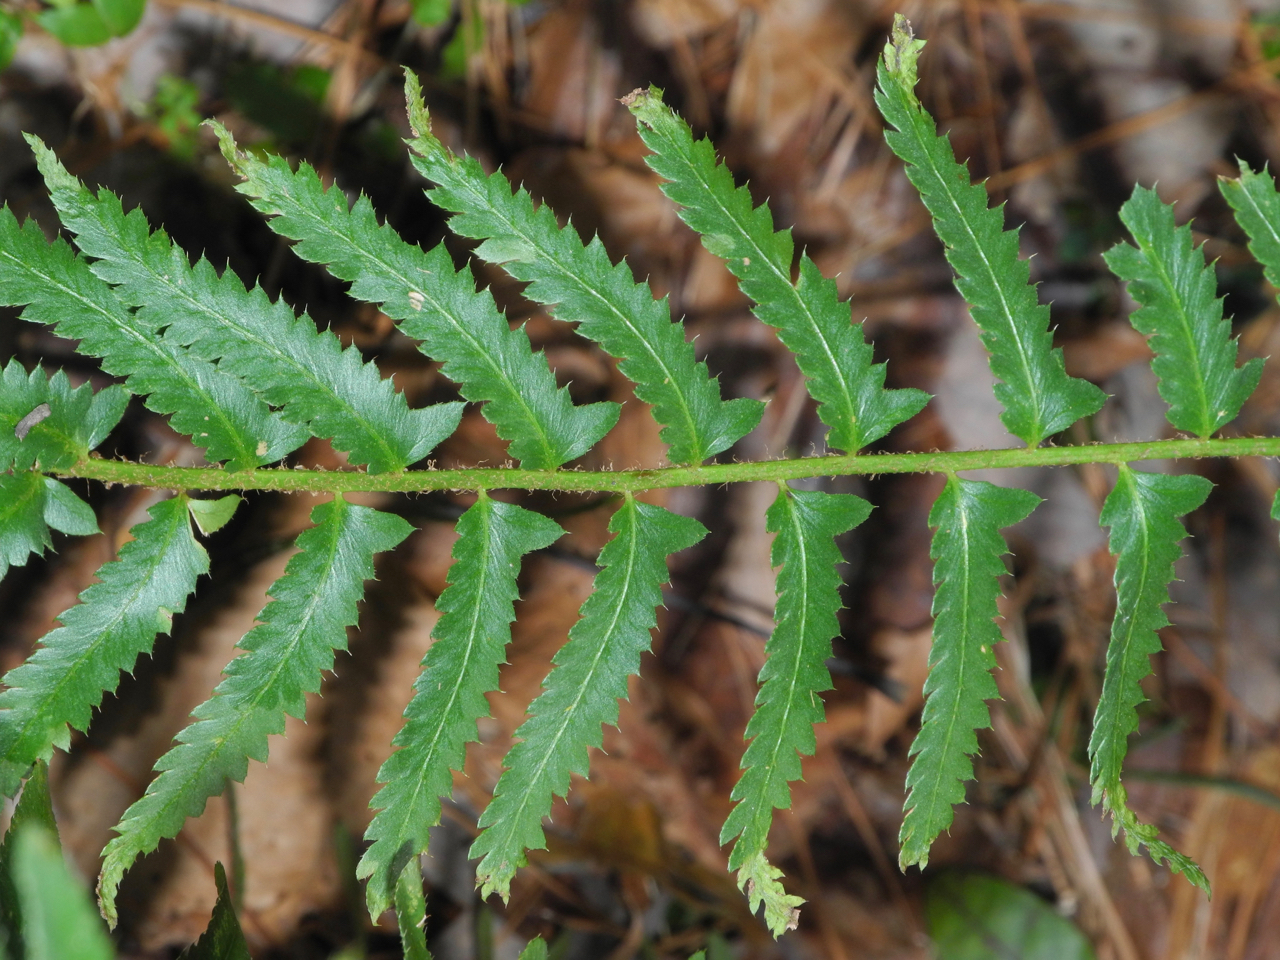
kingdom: Plantae
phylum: Tracheophyta
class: Polypodiopsida
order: Polypodiales
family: Dryopteridaceae
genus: Polystichum
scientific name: Polystichum acrostichoides
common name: Christmas fern
